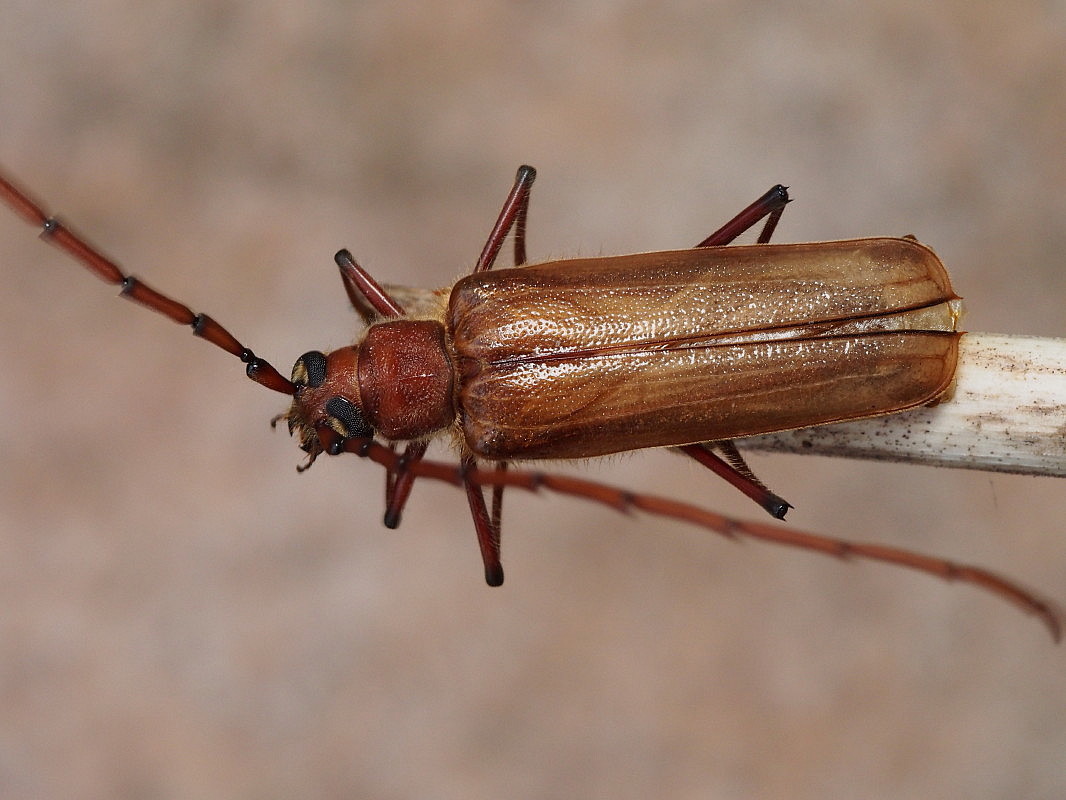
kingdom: Animalia
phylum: Arthropoda
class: Insecta
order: Coleoptera
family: Cerambycidae
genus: Ochrocydus
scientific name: Ochrocydus huttoni
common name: Kanuka longhorn
